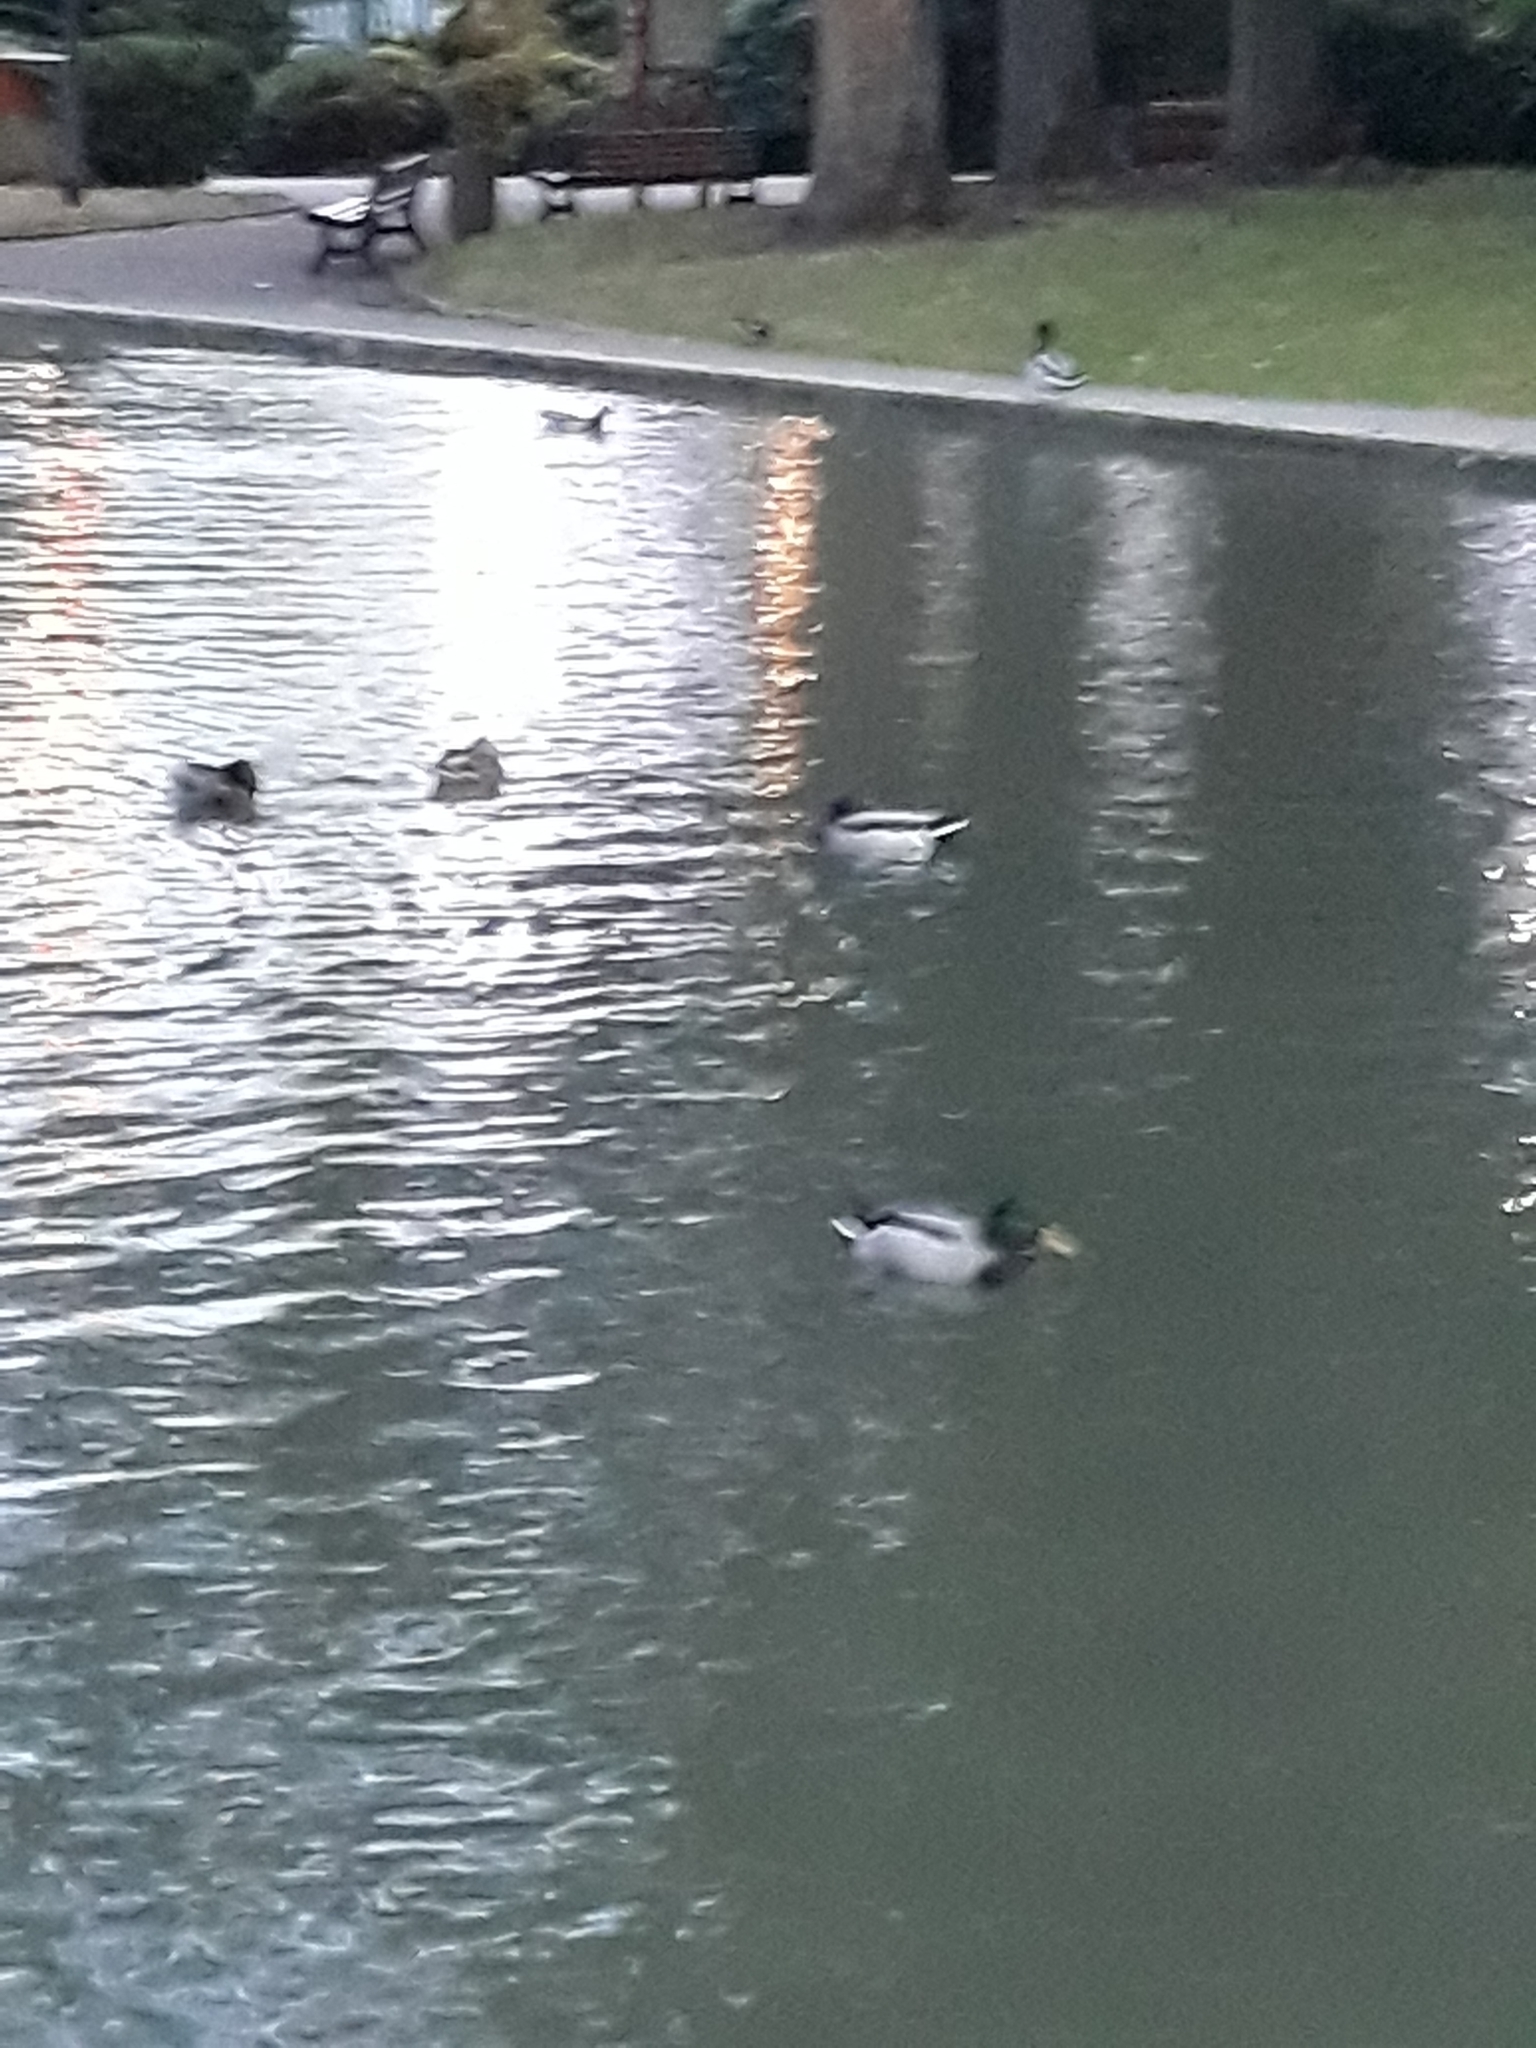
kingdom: Animalia
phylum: Chordata
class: Aves
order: Anseriformes
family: Anatidae
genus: Anas
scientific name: Anas platyrhynchos
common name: Mallard
